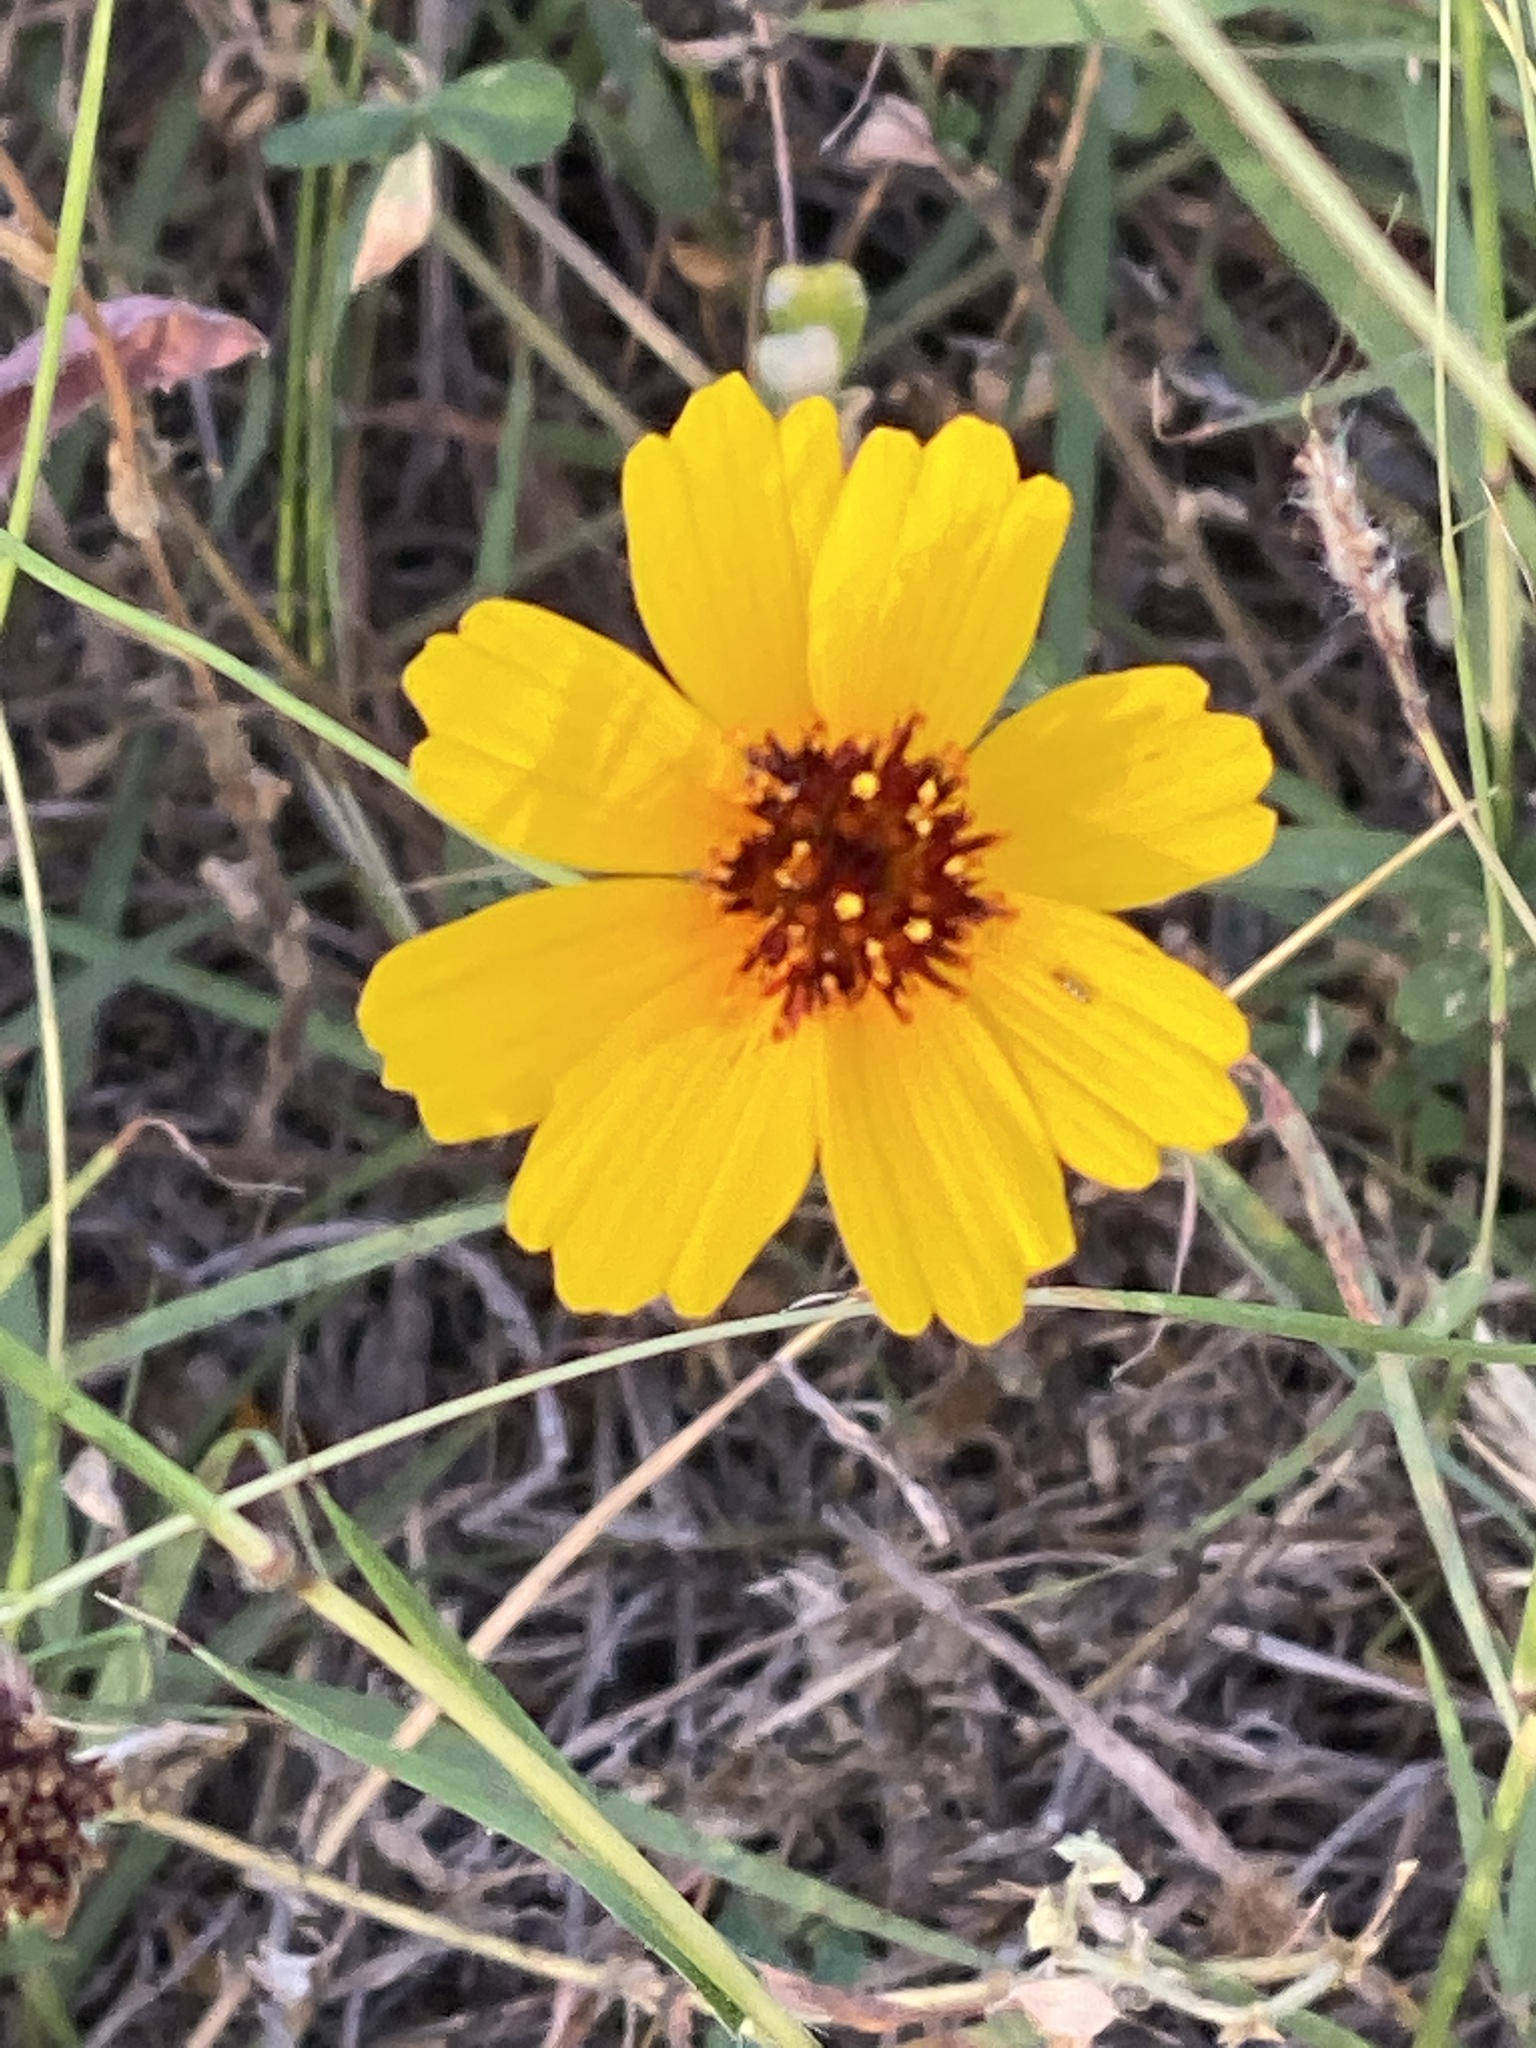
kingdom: Plantae
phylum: Tracheophyta
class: Magnoliopsida
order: Asterales
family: Asteraceae
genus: Thelesperma
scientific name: Thelesperma filifolium
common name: Stiff greenthread
